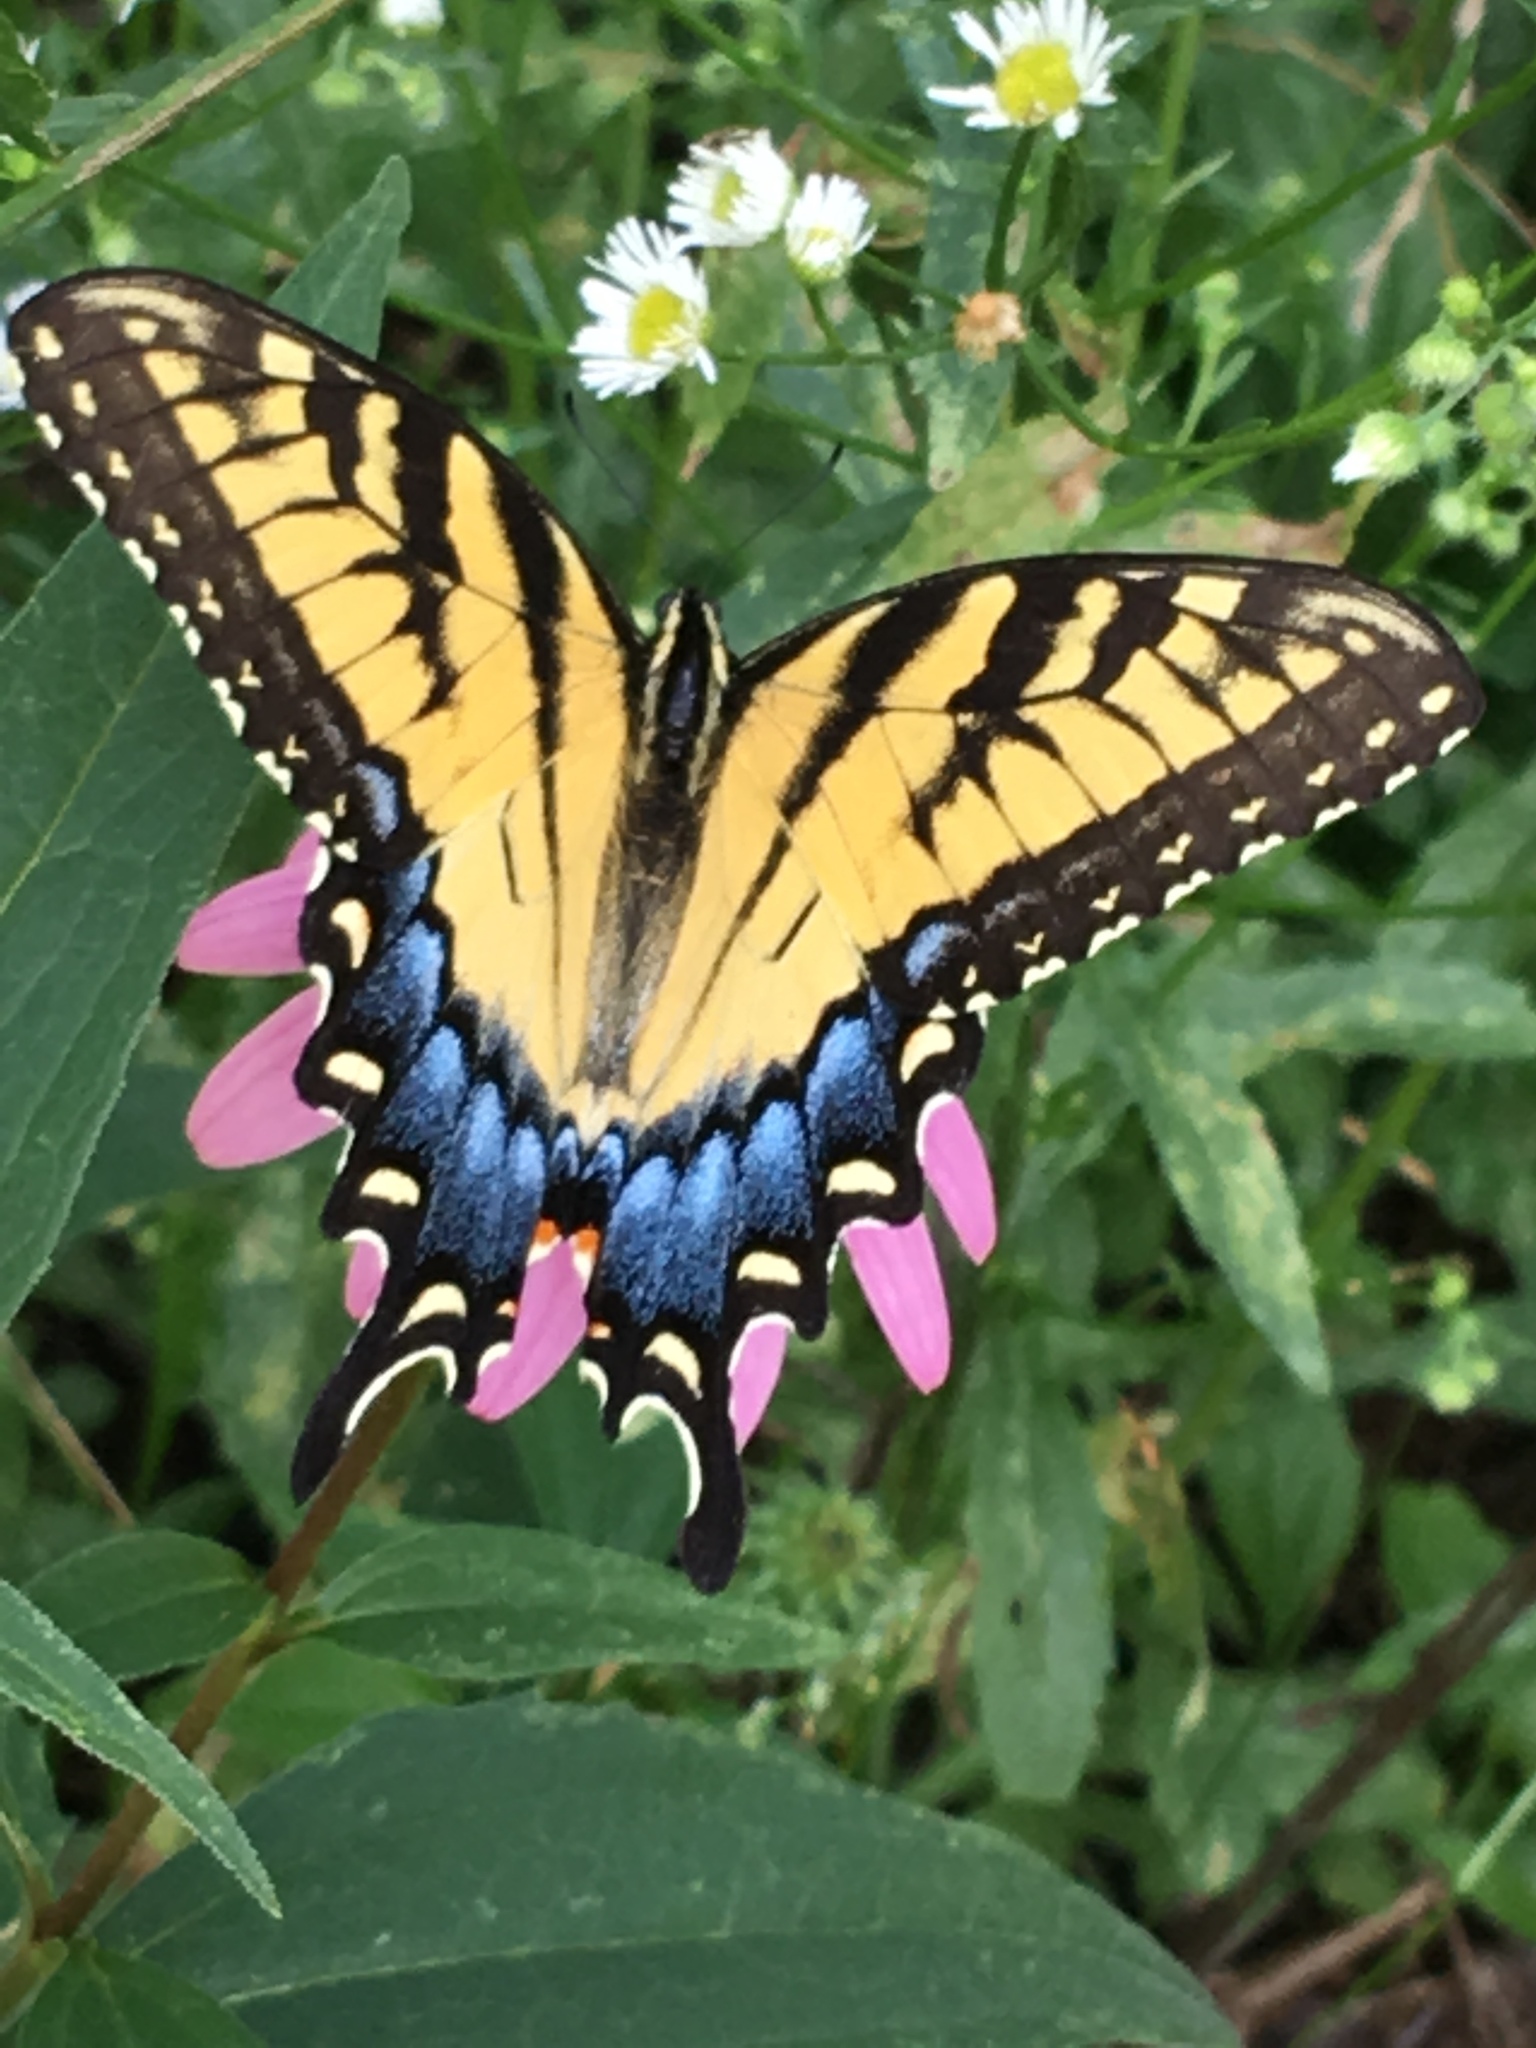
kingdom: Animalia
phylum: Arthropoda
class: Insecta
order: Lepidoptera
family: Papilionidae
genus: Papilio
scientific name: Papilio glaucus
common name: Tiger swallowtail
